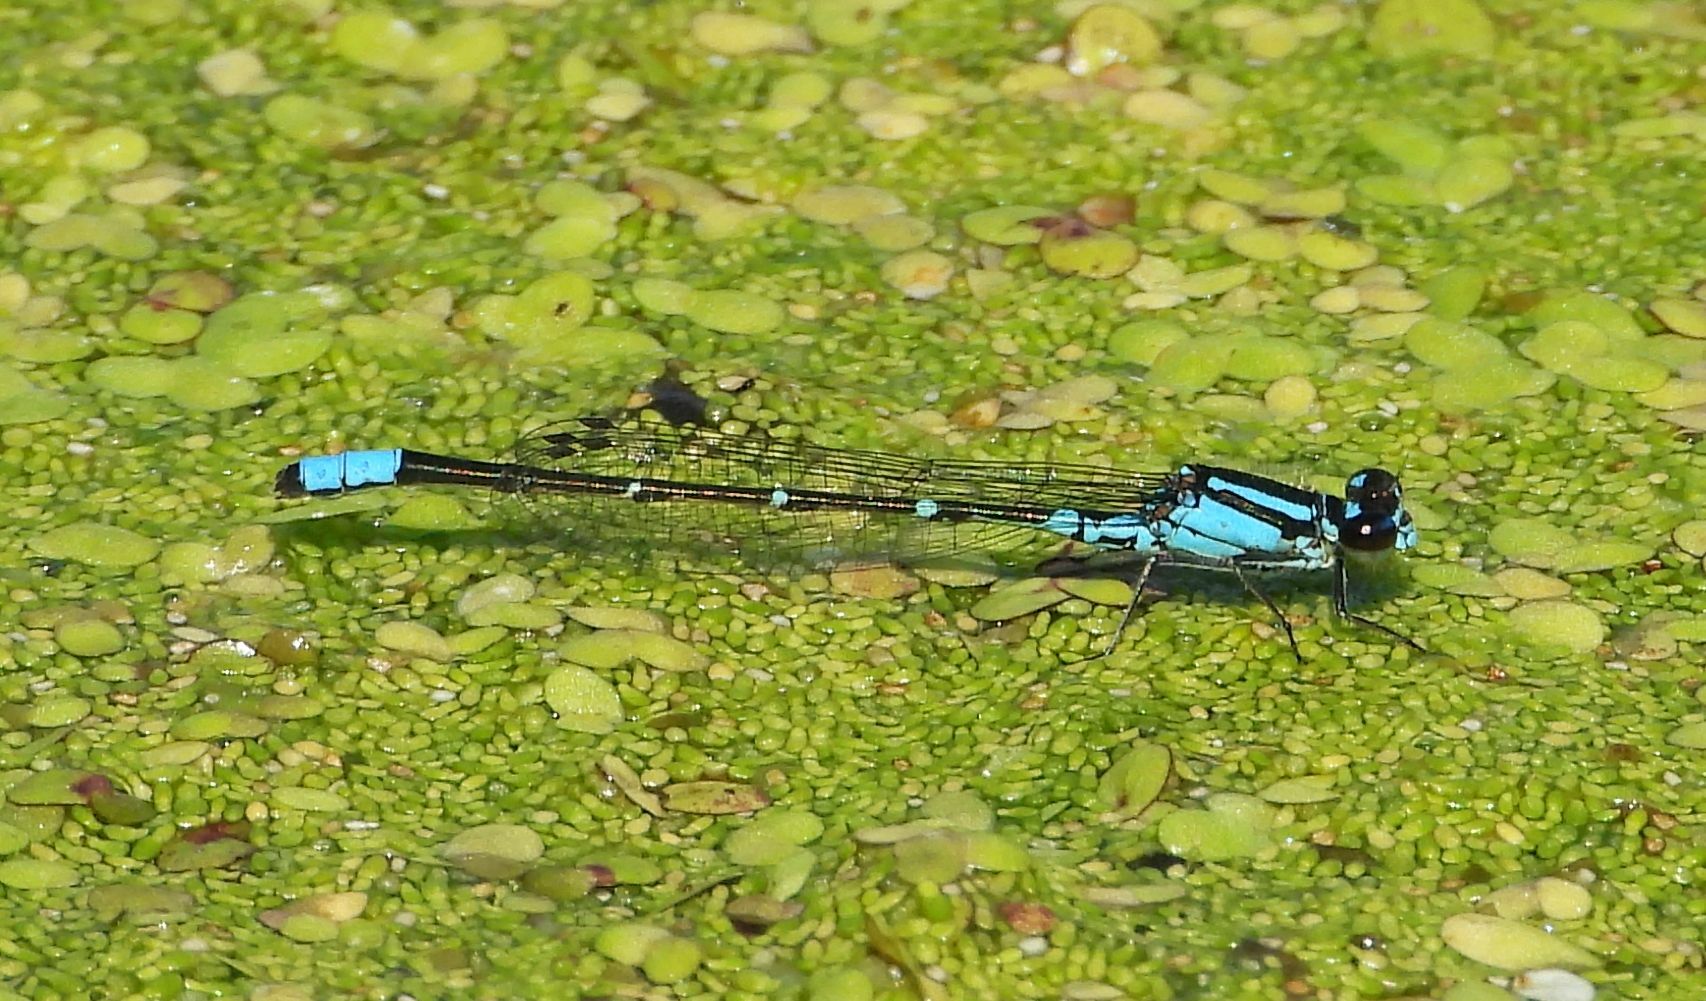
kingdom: Animalia
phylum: Arthropoda
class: Insecta
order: Odonata
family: Coenagrionidae
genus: Enallagma
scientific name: Enallagma geminatum
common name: Skimming bluet
